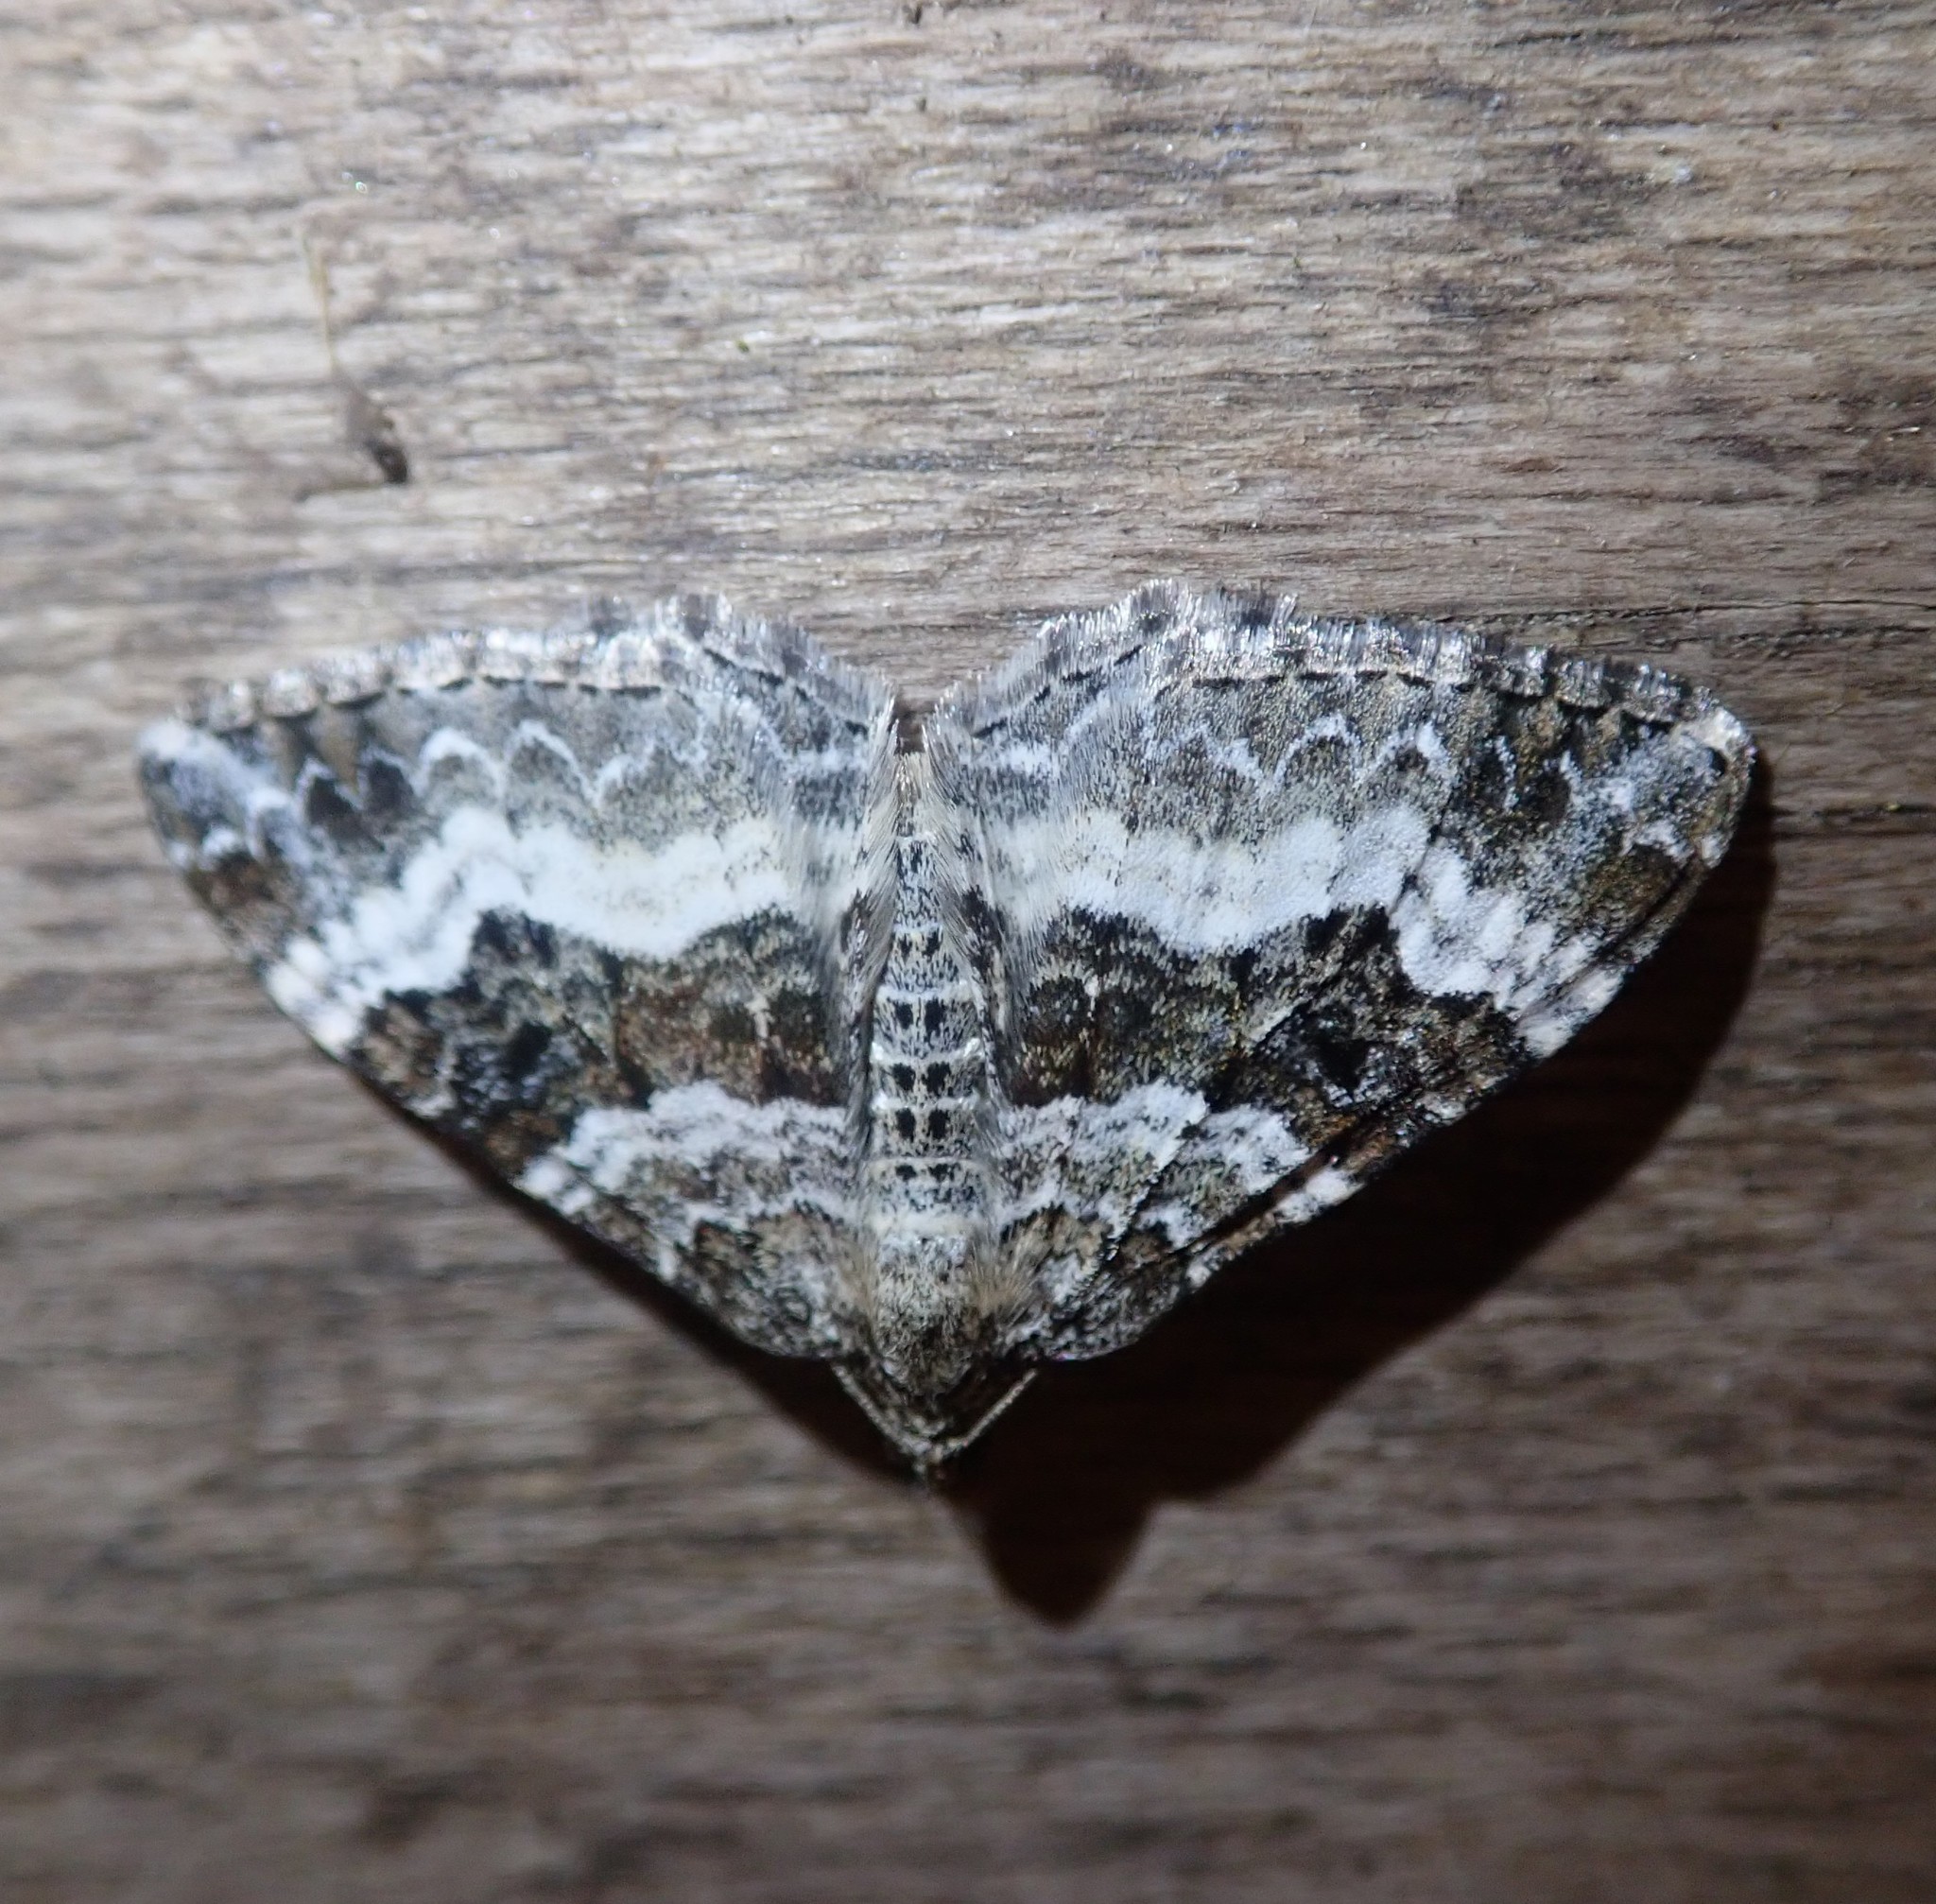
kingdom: Animalia
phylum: Arthropoda
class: Insecta
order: Lepidoptera
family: Geometridae
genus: Epirrhoe
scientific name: Epirrhoe alternata
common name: Common carpet
